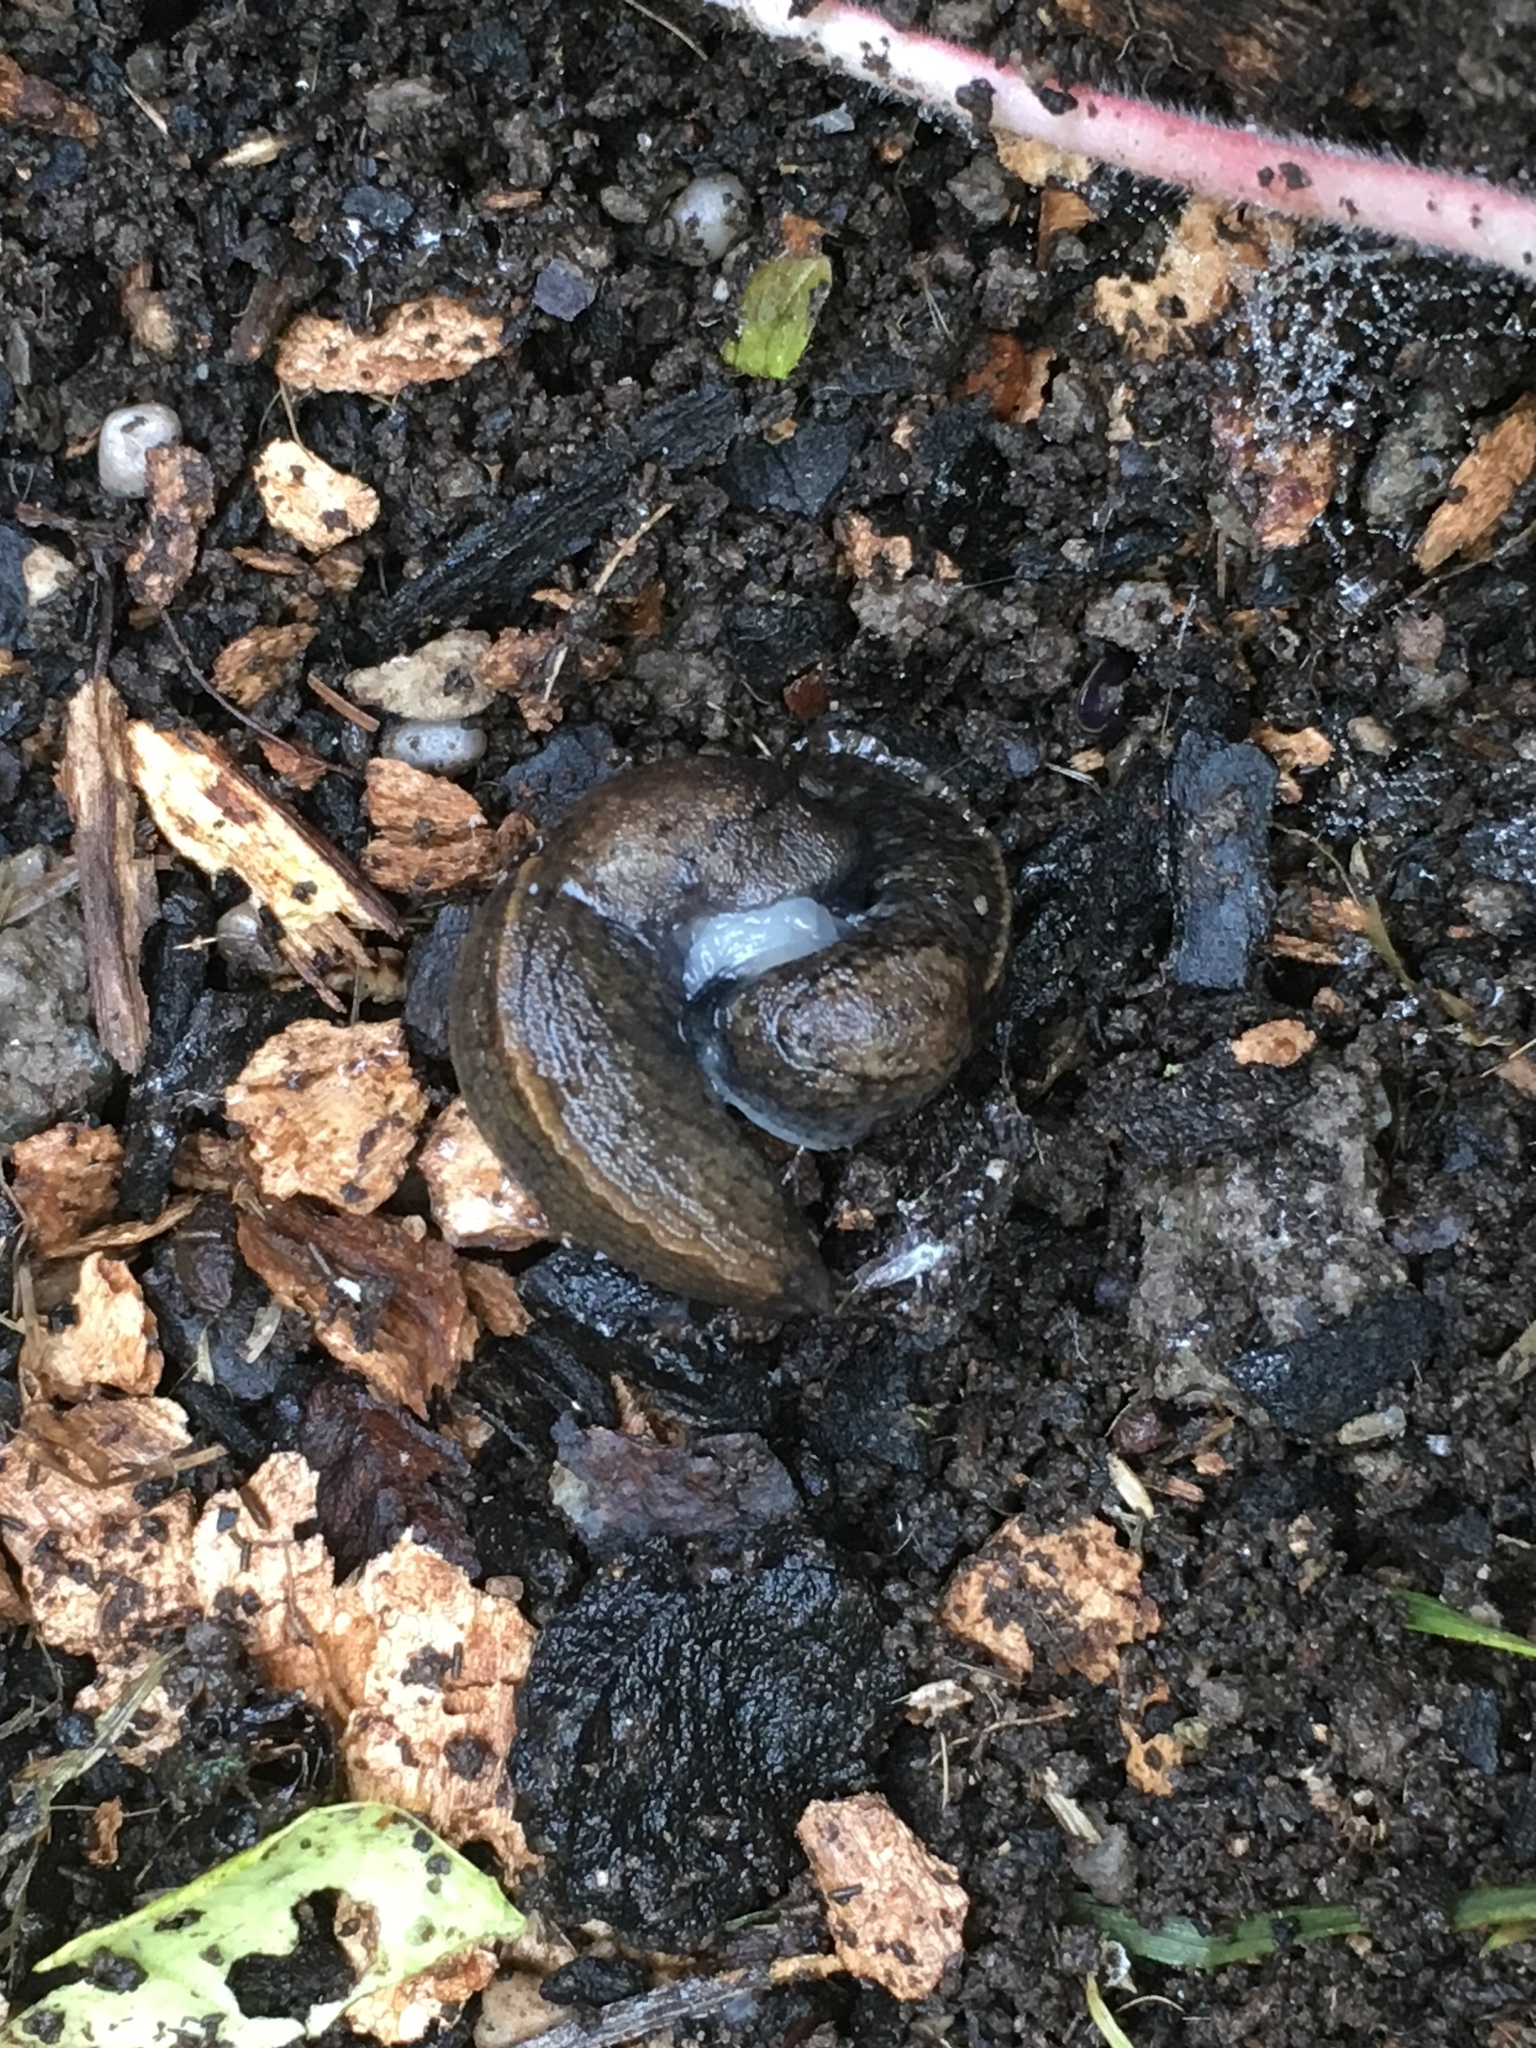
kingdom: Animalia
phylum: Mollusca
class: Gastropoda
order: Stylommatophora
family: Milacidae
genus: Milax
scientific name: Milax gagates
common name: Greenhouse slug
